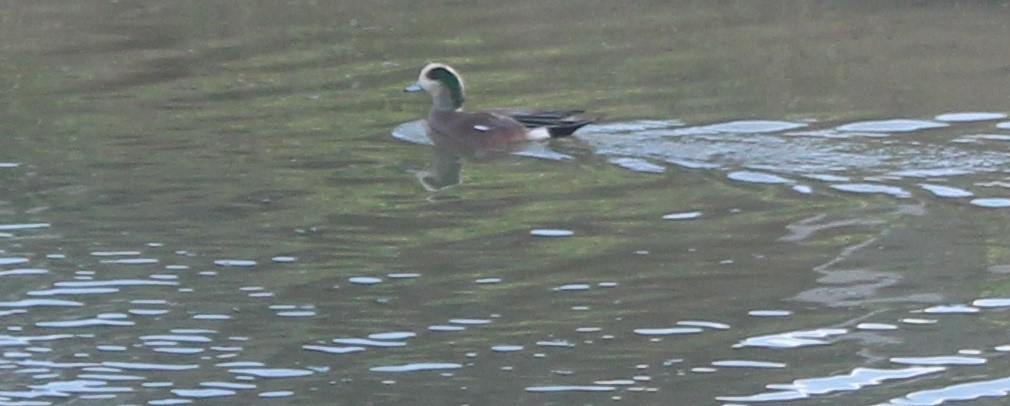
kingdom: Animalia
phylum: Chordata
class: Aves
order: Anseriformes
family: Anatidae
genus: Mareca
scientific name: Mareca americana
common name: American wigeon
